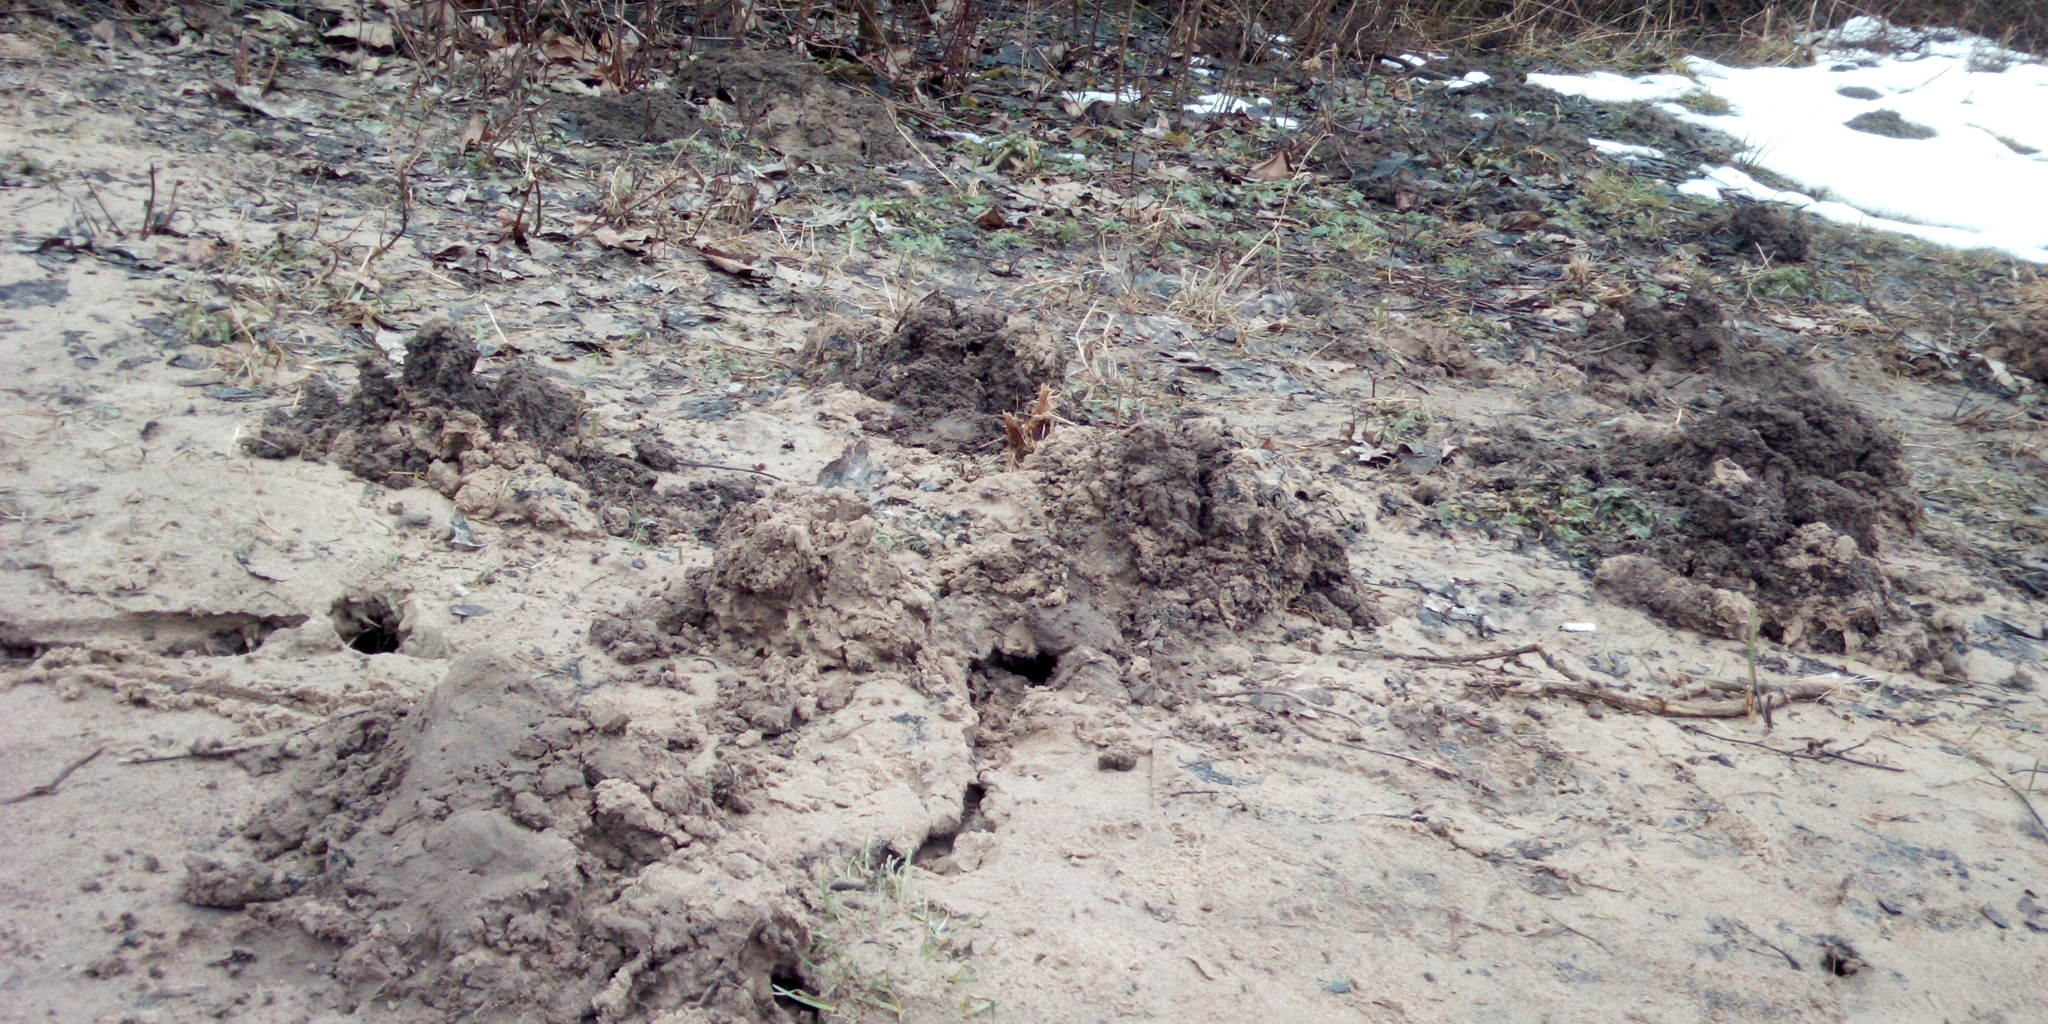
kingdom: Animalia
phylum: Chordata
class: Mammalia
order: Soricomorpha
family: Talpidae
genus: Talpa
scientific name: Talpa europaea
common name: European mole
